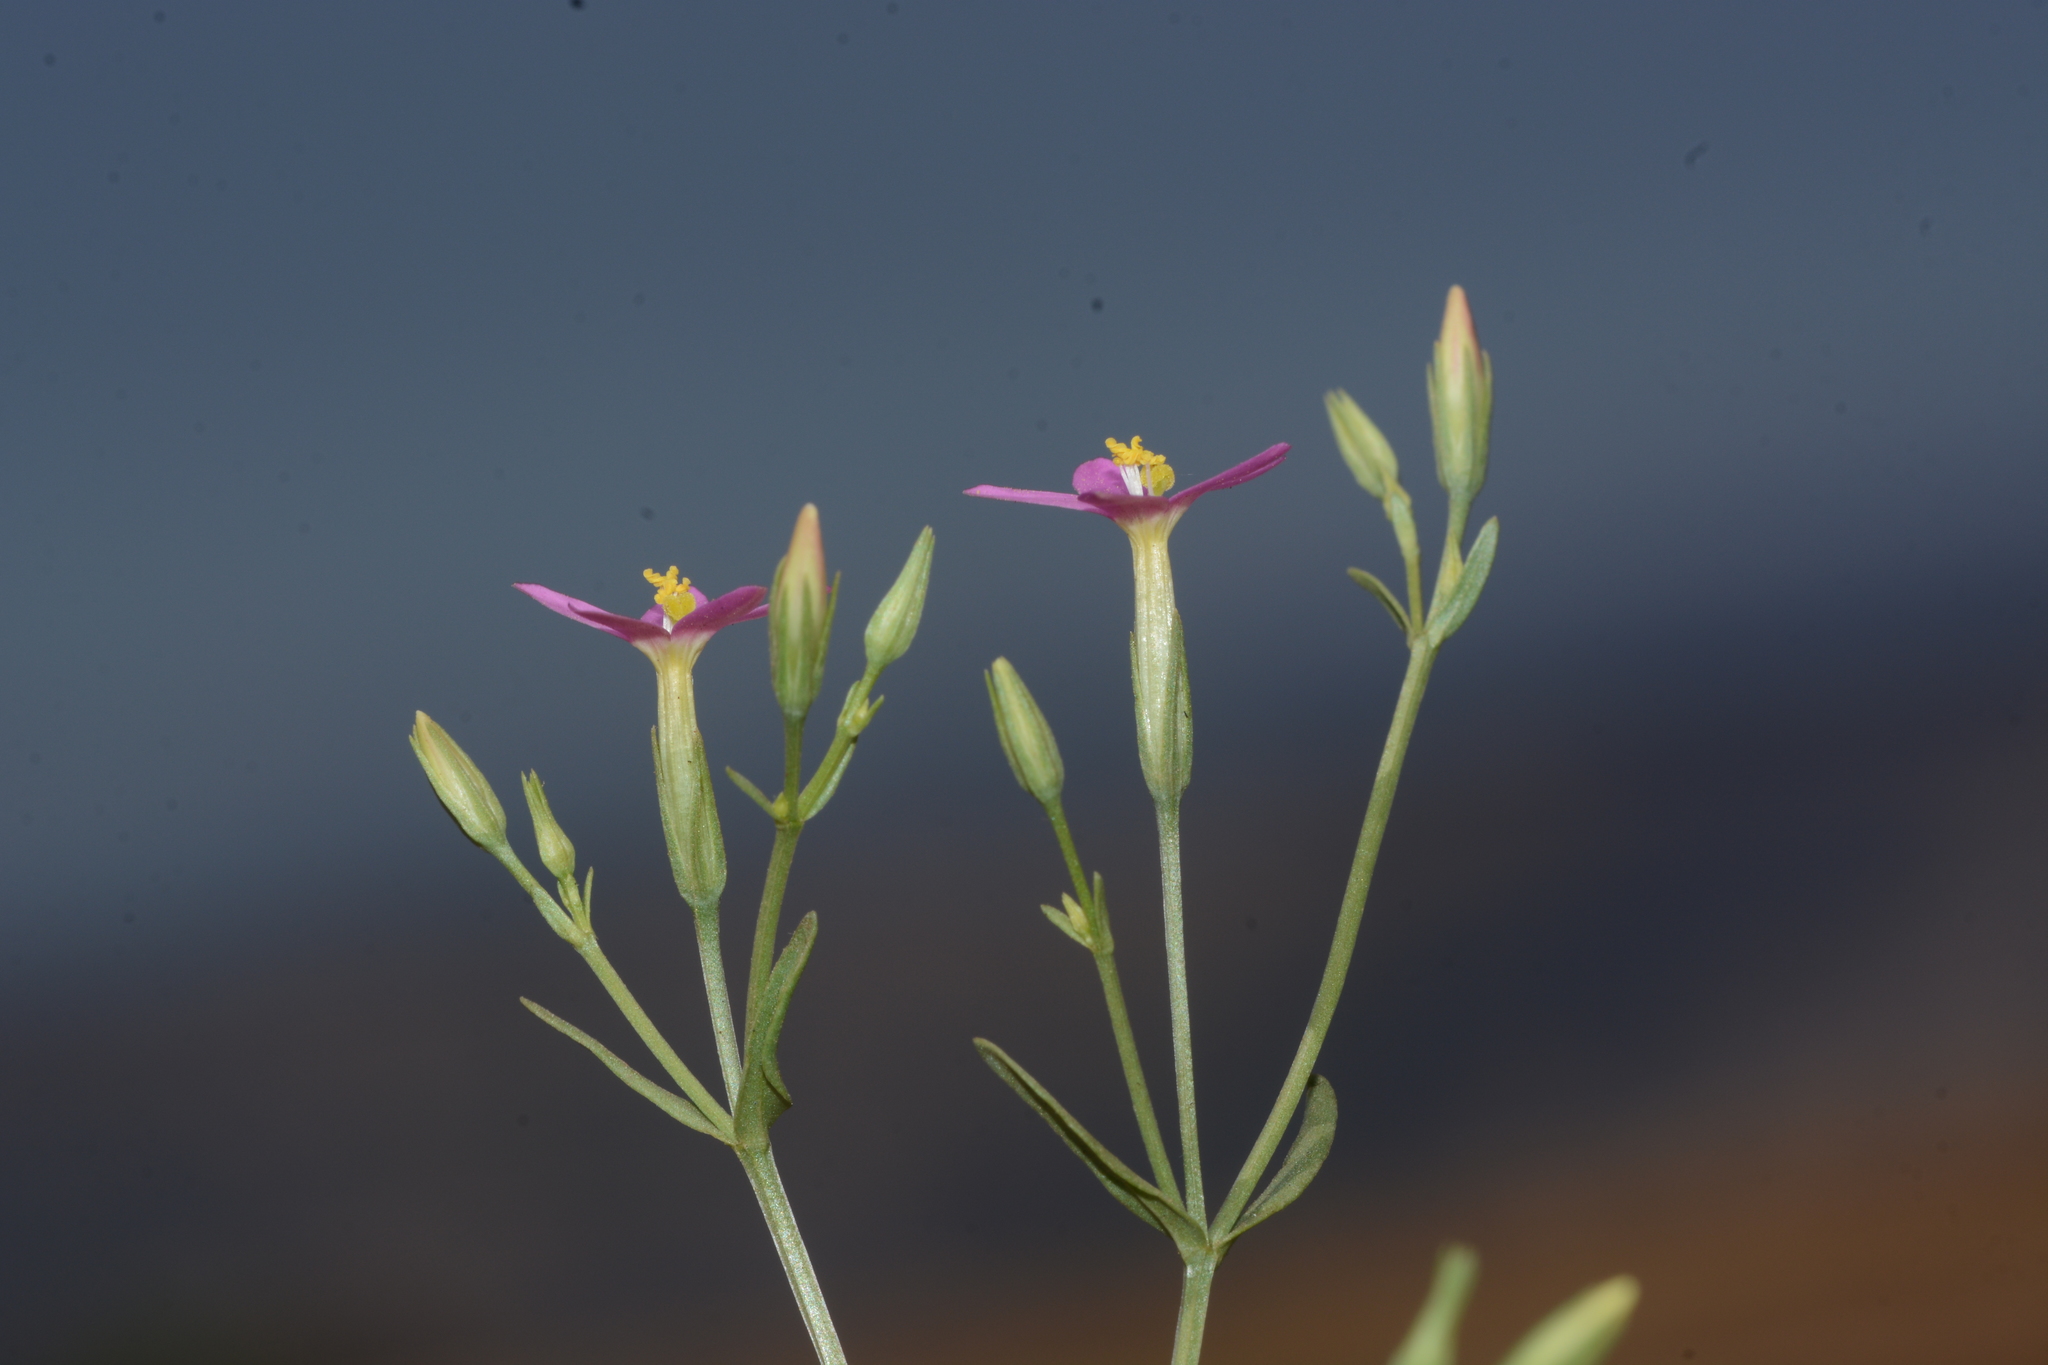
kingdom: Plantae
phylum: Tracheophyta
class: Magnoliopsida
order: Gentianales
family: Gentianaceae
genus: Centaurium
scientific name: Centaurium pulchellum
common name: Lesser centaury
